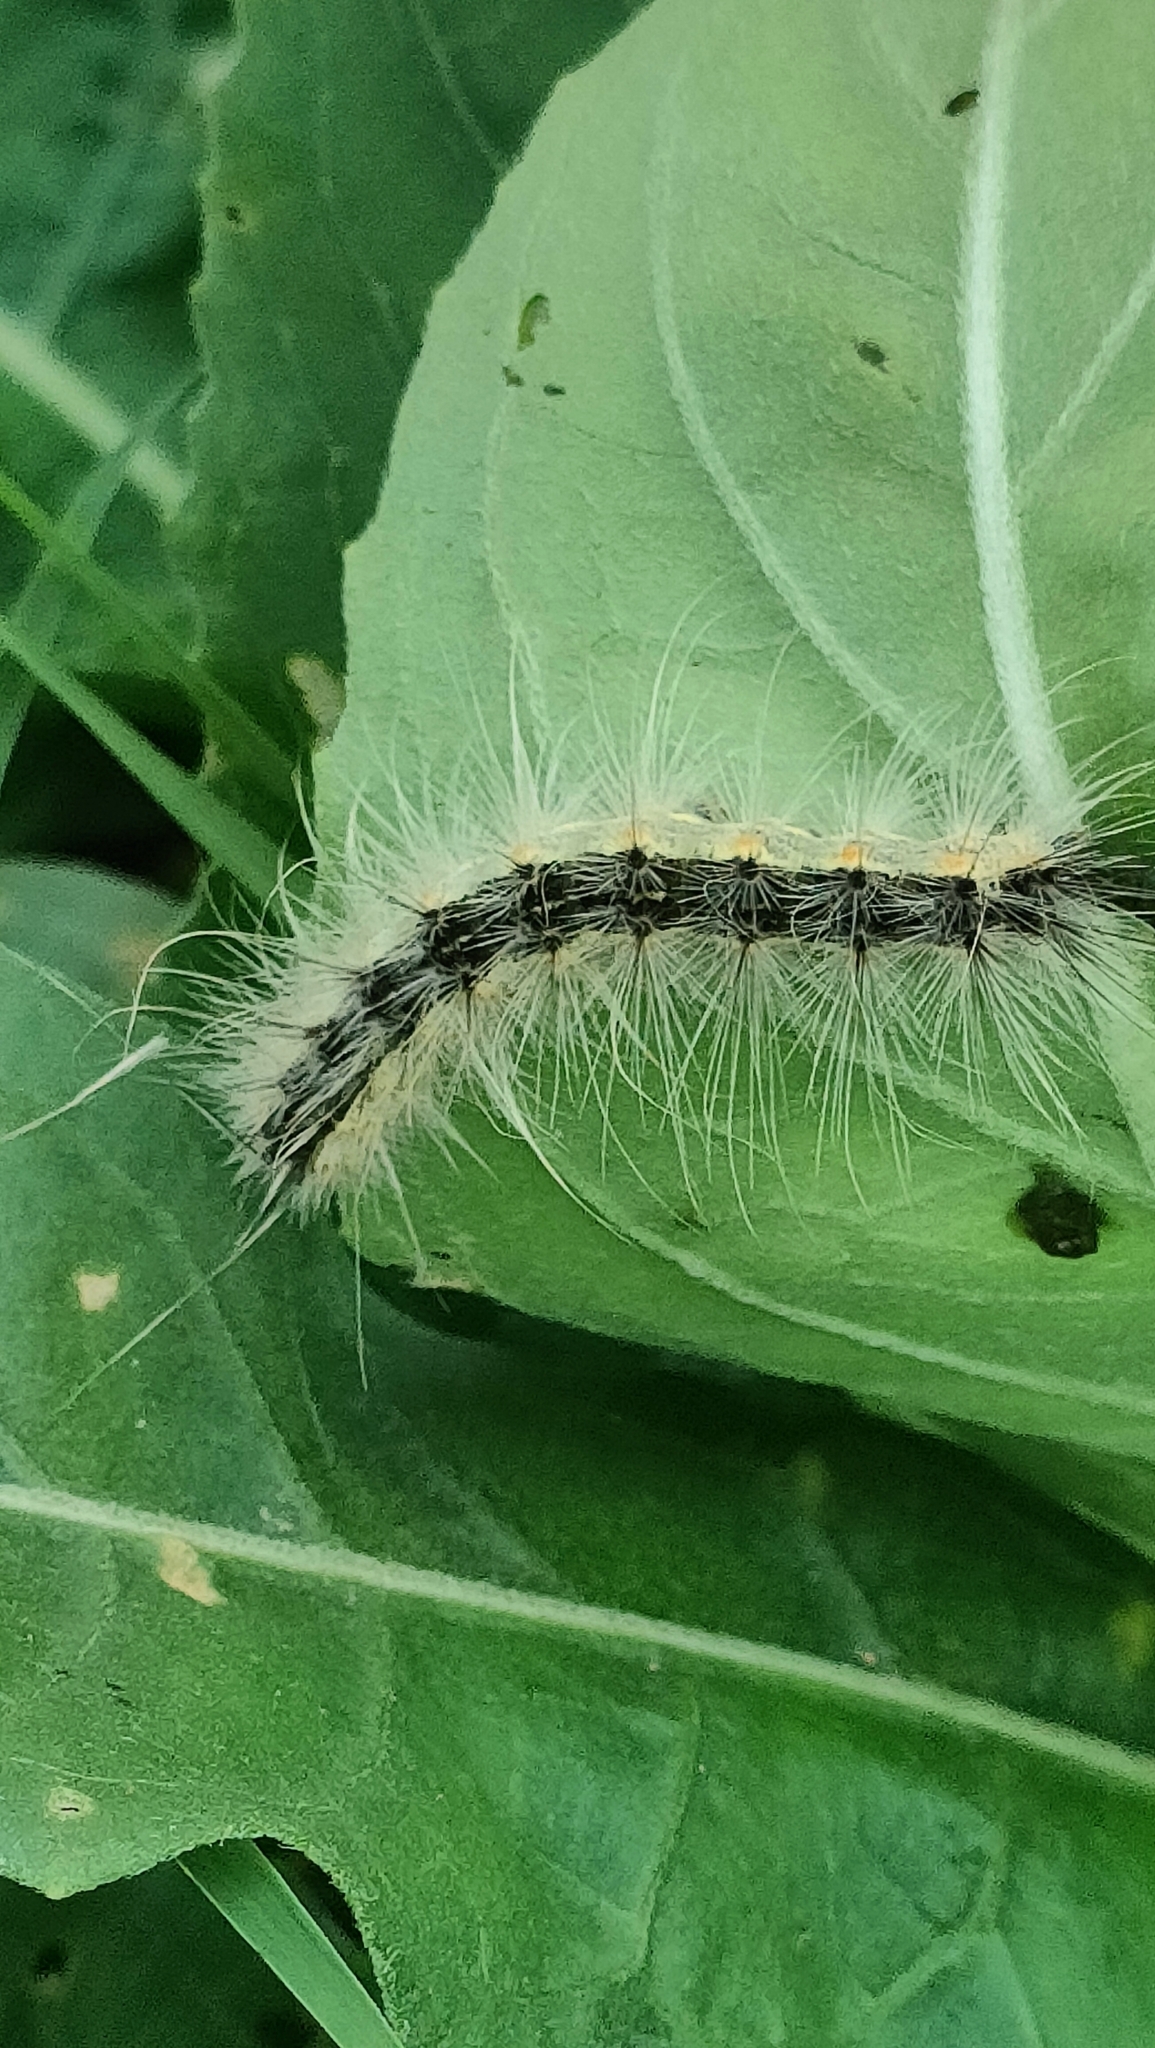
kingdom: Animalia
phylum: Arthropoda
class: Insecta
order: Lepidoptera
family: Erebidae
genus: Hyphantria
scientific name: Hyphantria cunea
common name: American white moth
